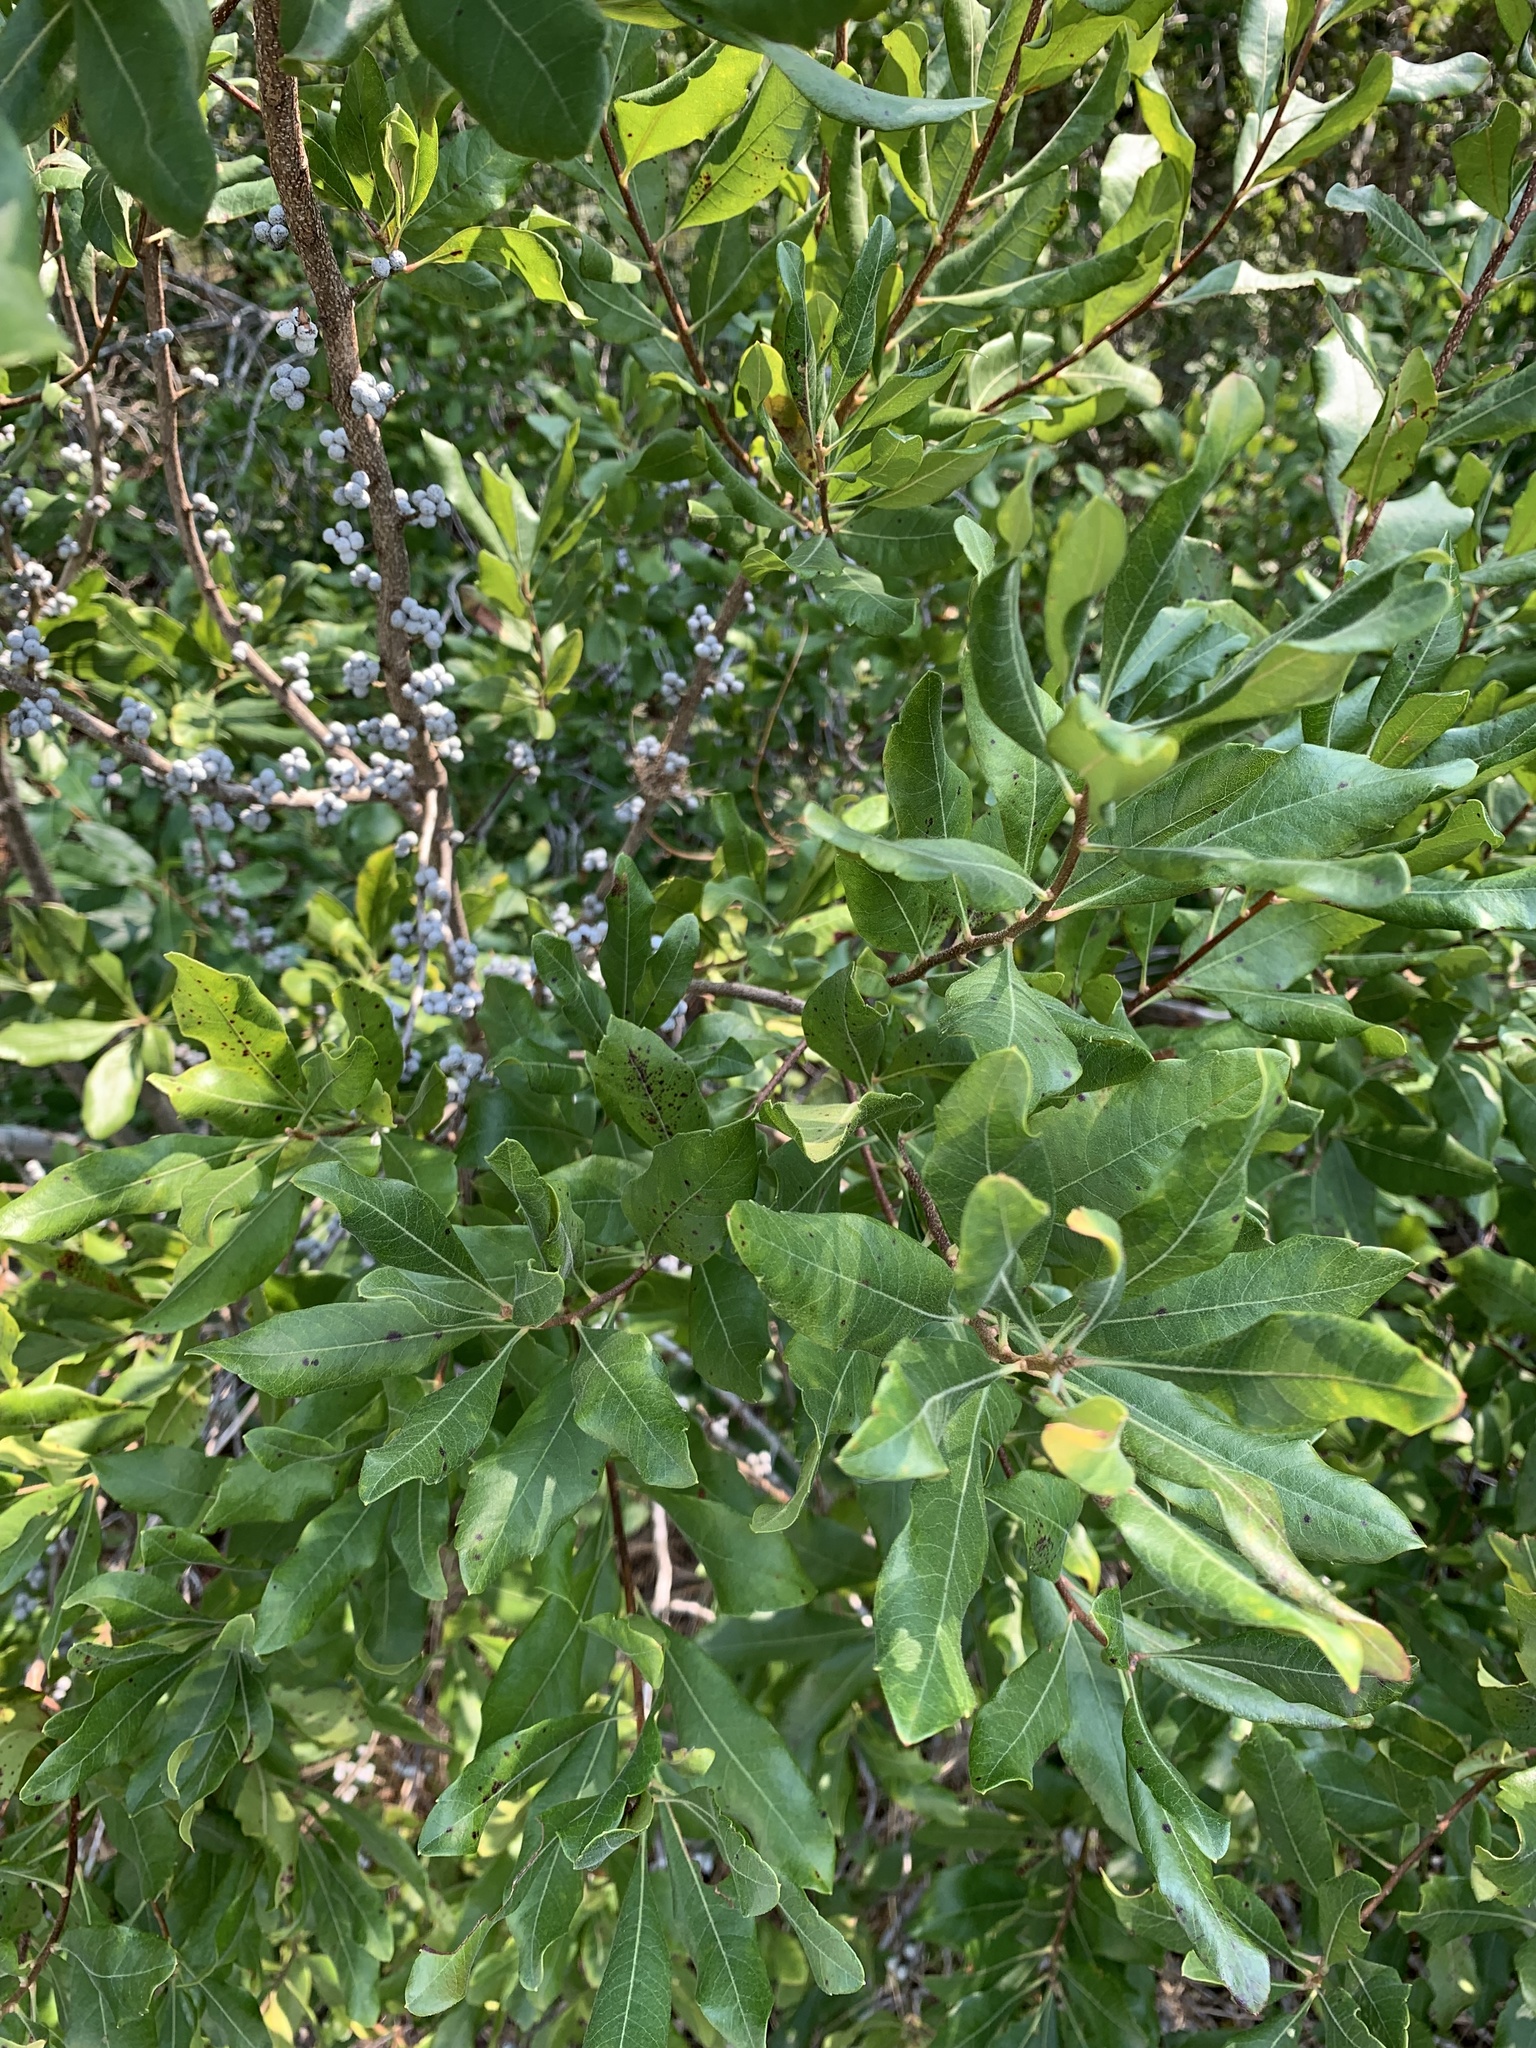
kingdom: Plantae
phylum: Tracheophyta
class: Magnoliopsida
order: Fagales
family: Myricaceae
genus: Morella
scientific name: Morella pensylvanica
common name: Northern bayberry
